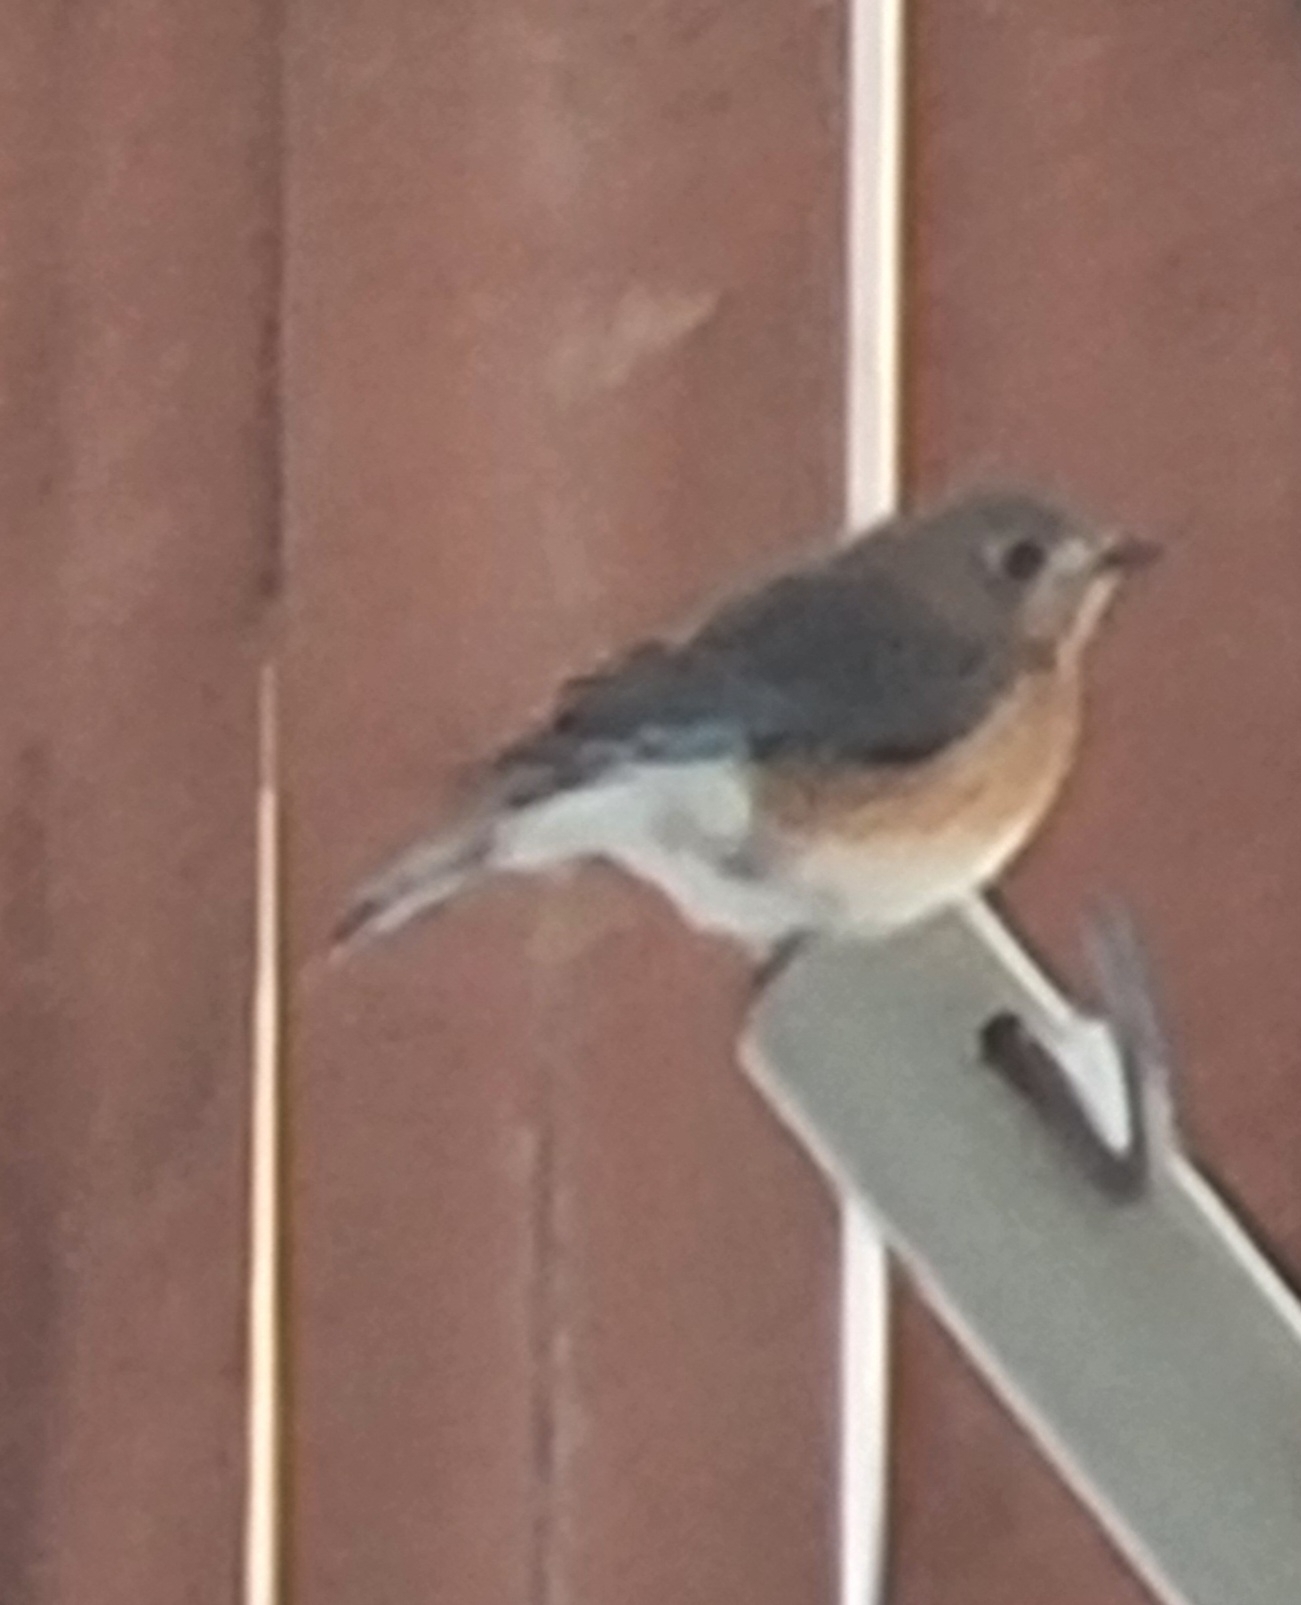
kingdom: Animalia
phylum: Chordata
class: Aves
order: Passeriformes
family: Turdidae
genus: Sialia
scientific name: Sialia sialis
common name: Eastern bluebird
